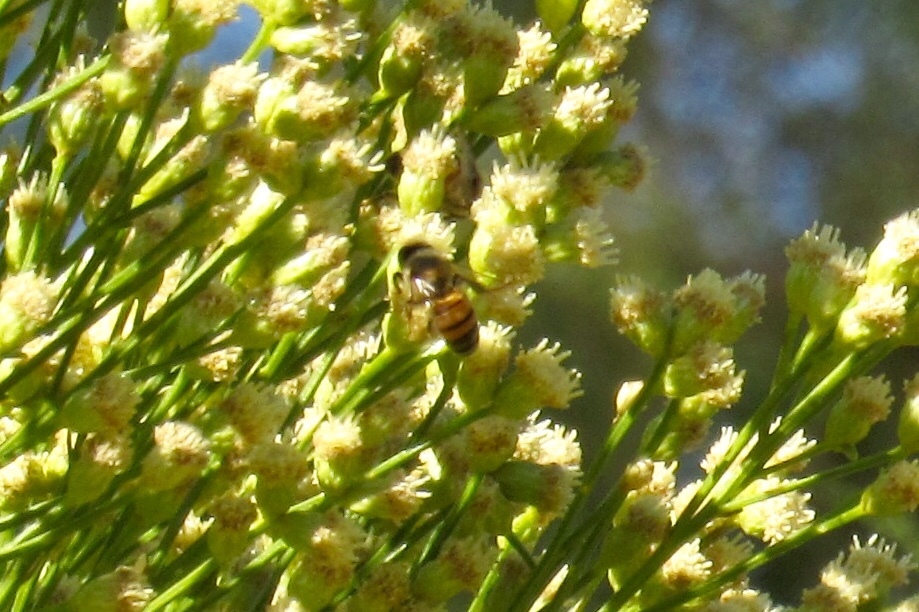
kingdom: Animalia
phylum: Arthropoda
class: Insecta
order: Hymenoptera
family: Apidae
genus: Apis
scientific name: Apis mellifera
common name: Honey bee
